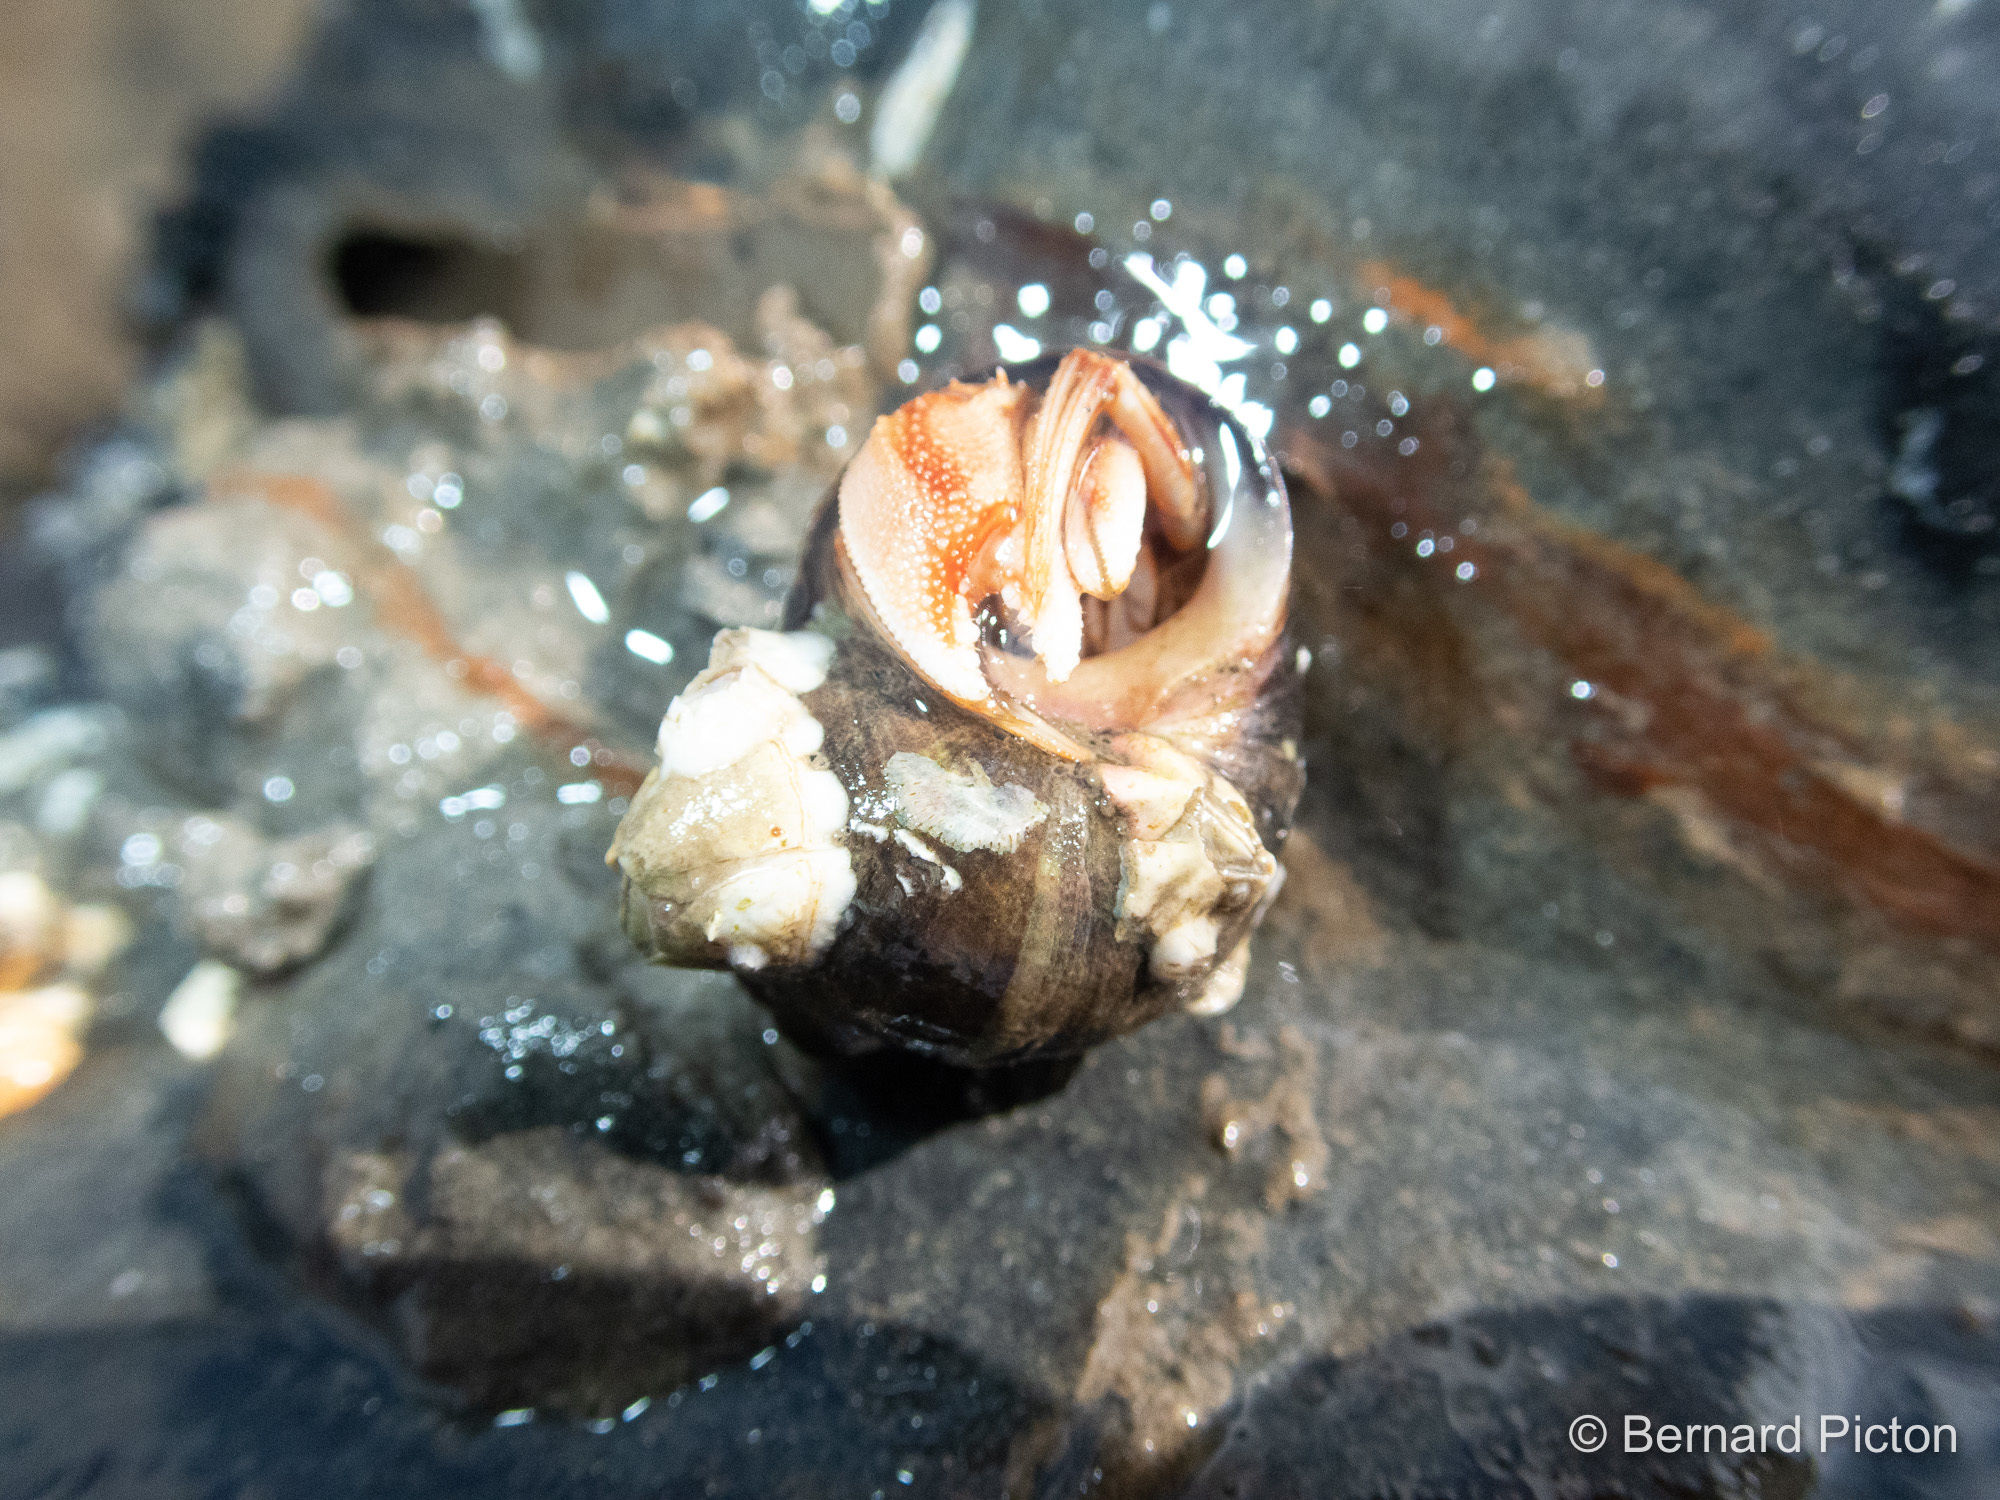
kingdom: Animalia
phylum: Arthropoda
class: Malacostraca
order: Decapoda
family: Paguridae
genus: Pagurus
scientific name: Pagurus bernhardus
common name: Hermit crab
